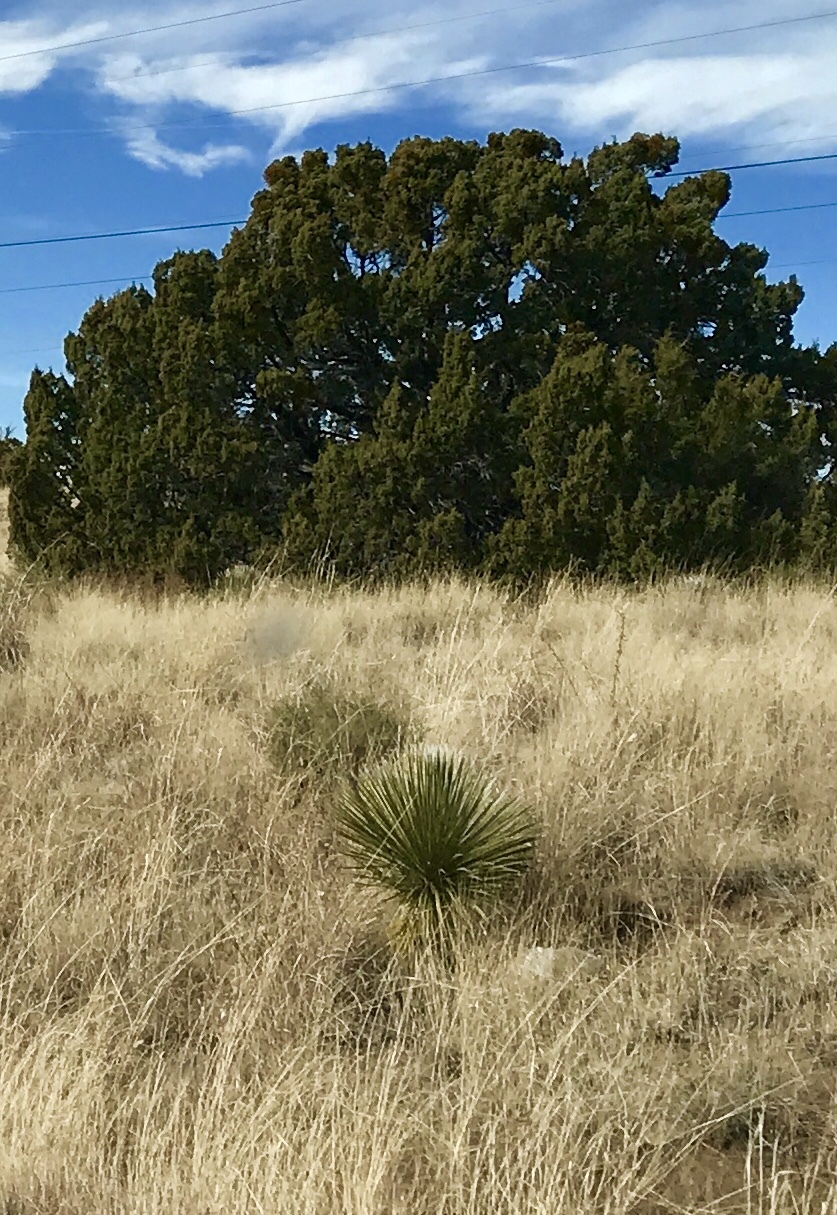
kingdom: Plantae
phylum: Tracheophyta
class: Liliopsida
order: Asparagales
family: Asparagaceae
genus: Yucca
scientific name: Yucca elata
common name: Palmella
